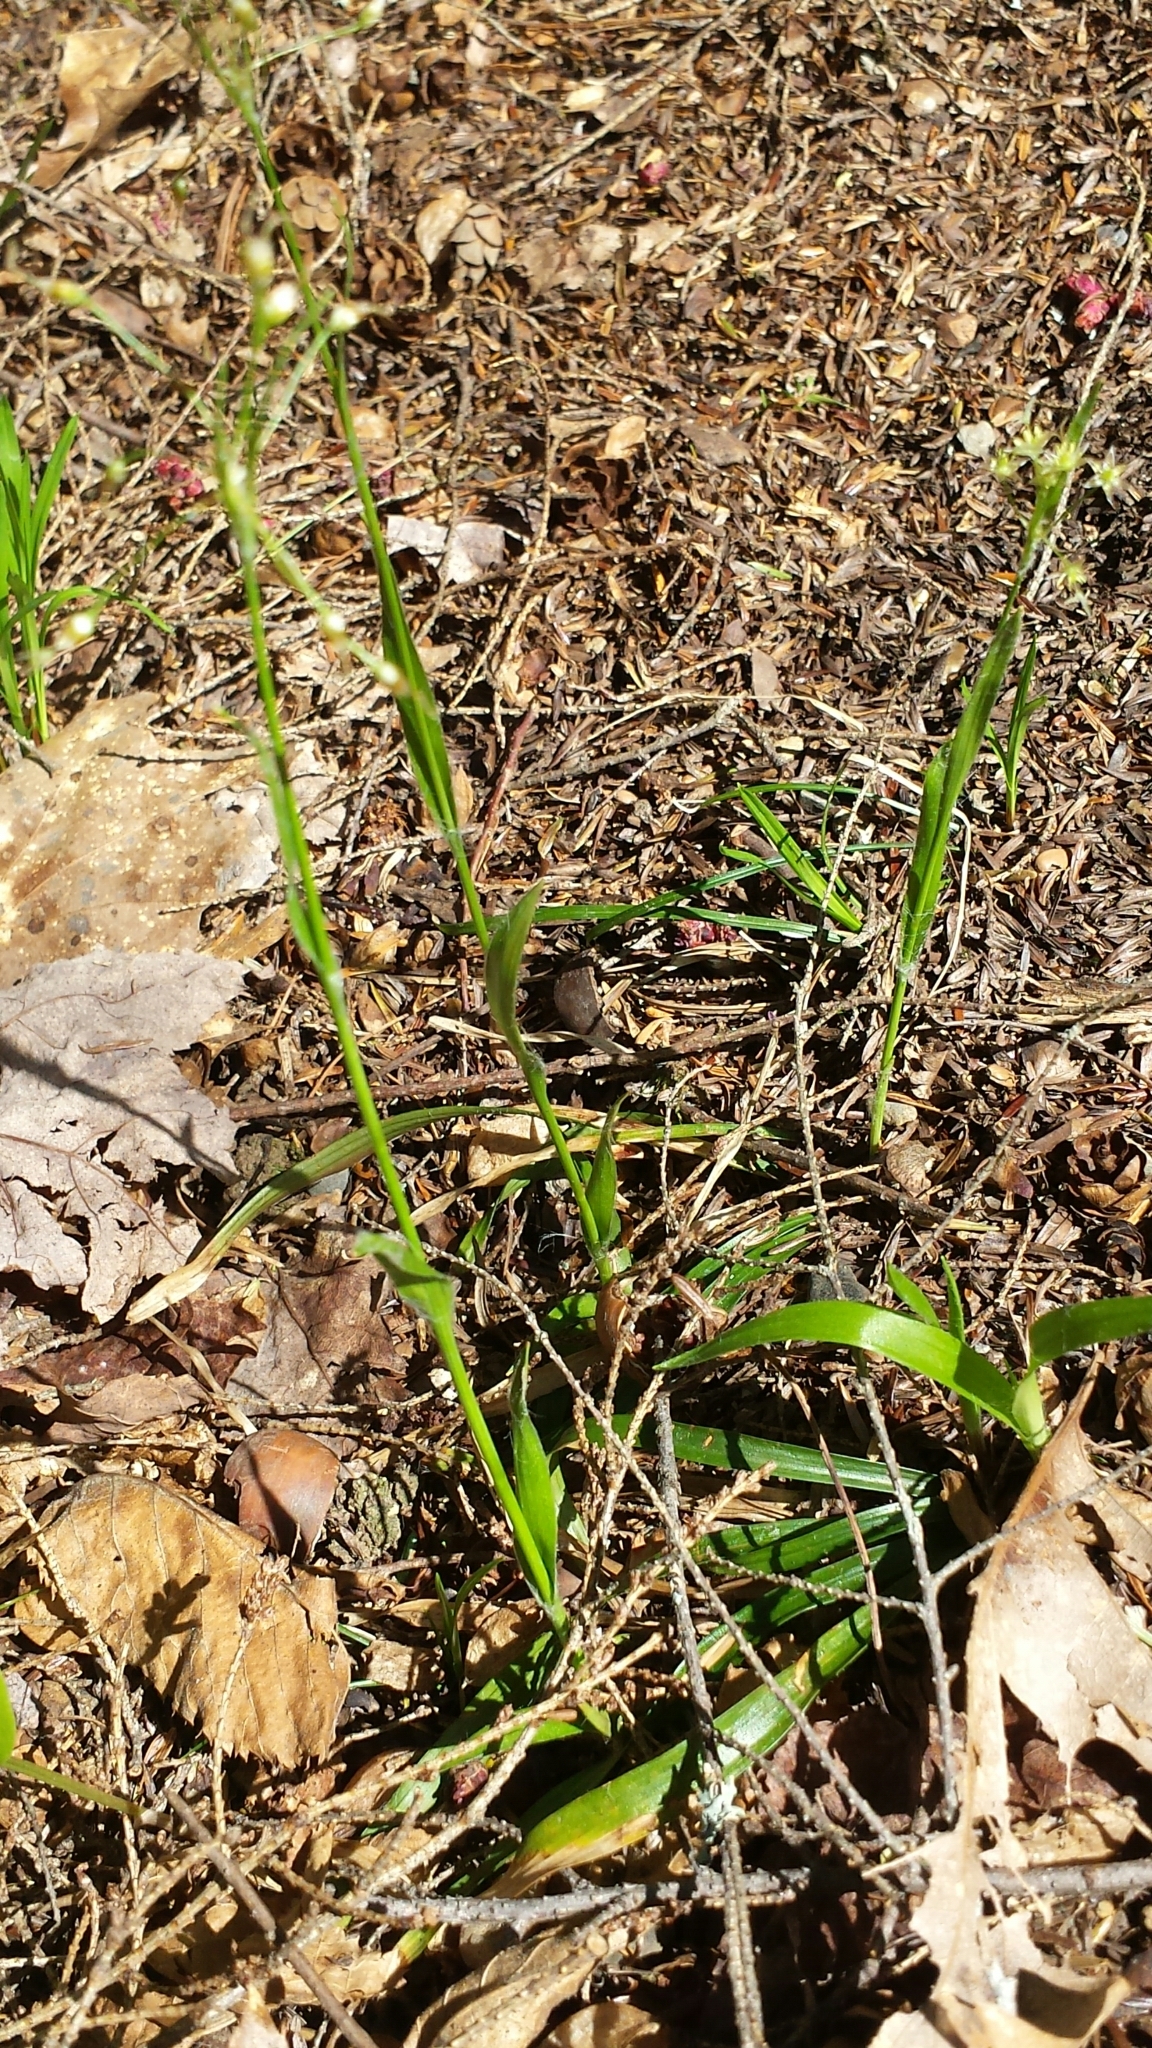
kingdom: Plantae
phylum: Tracheophyta
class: Liliopsida
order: Poales
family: Juncaceae
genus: Luzula
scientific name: Luzula acuminata
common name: Hairy woodrush
